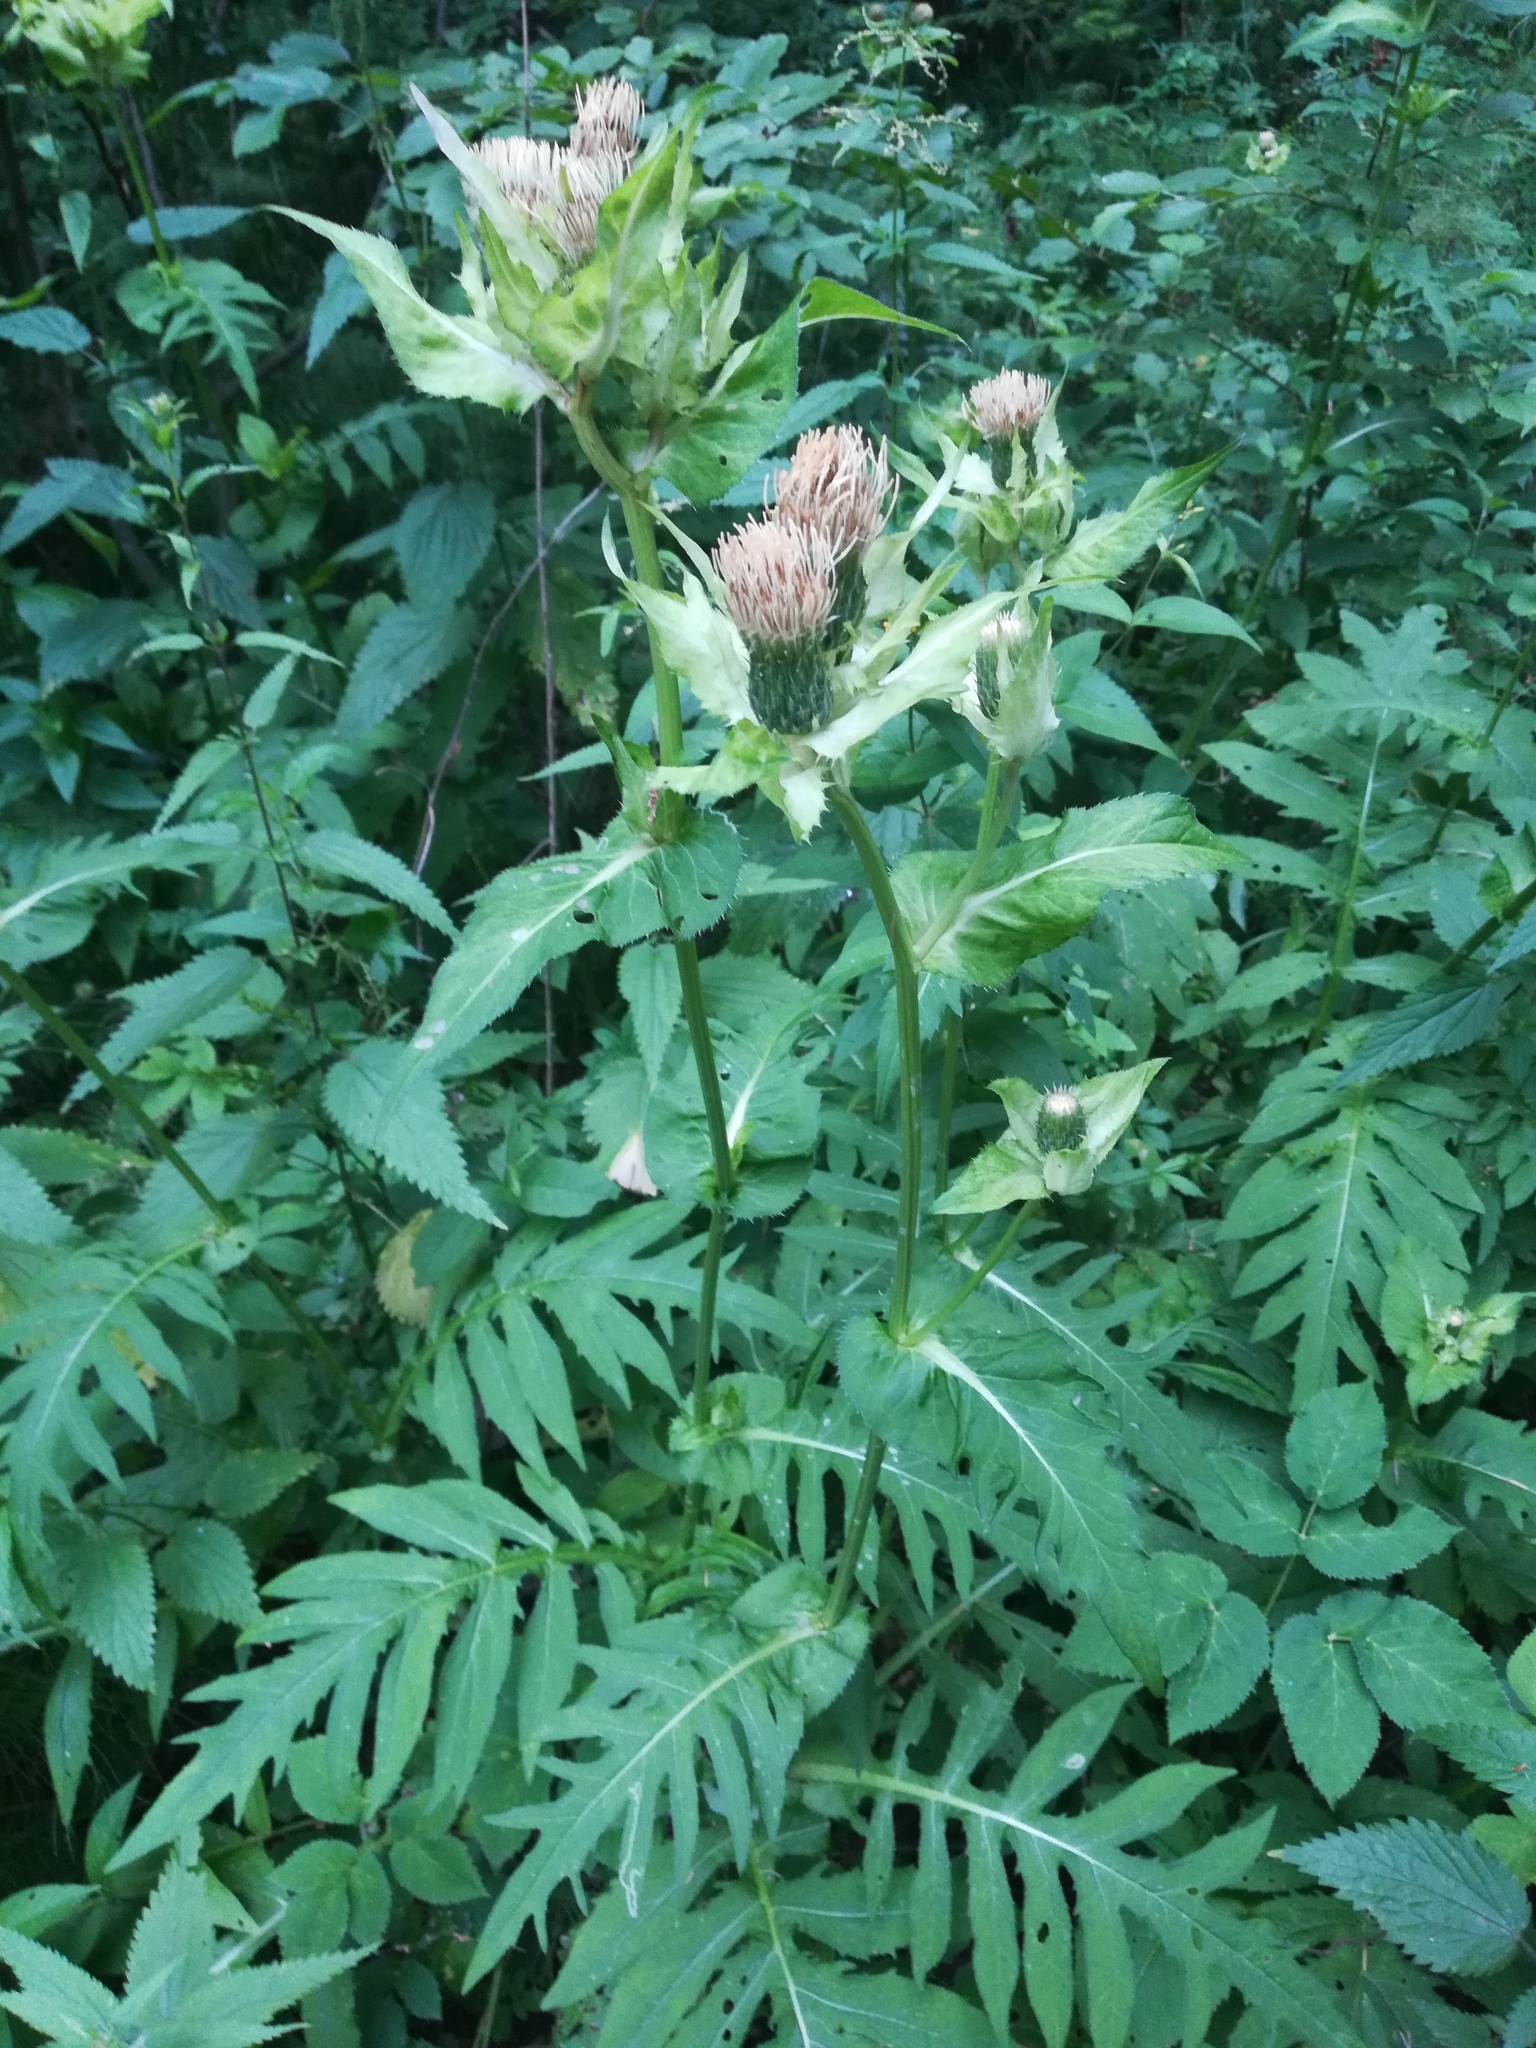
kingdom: Plantae
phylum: Tracheophyta
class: Magnoliopsida
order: Asterales
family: Asteraceae
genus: Cirsium
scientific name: Cirsium oleraceum
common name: Cabbage thistle
